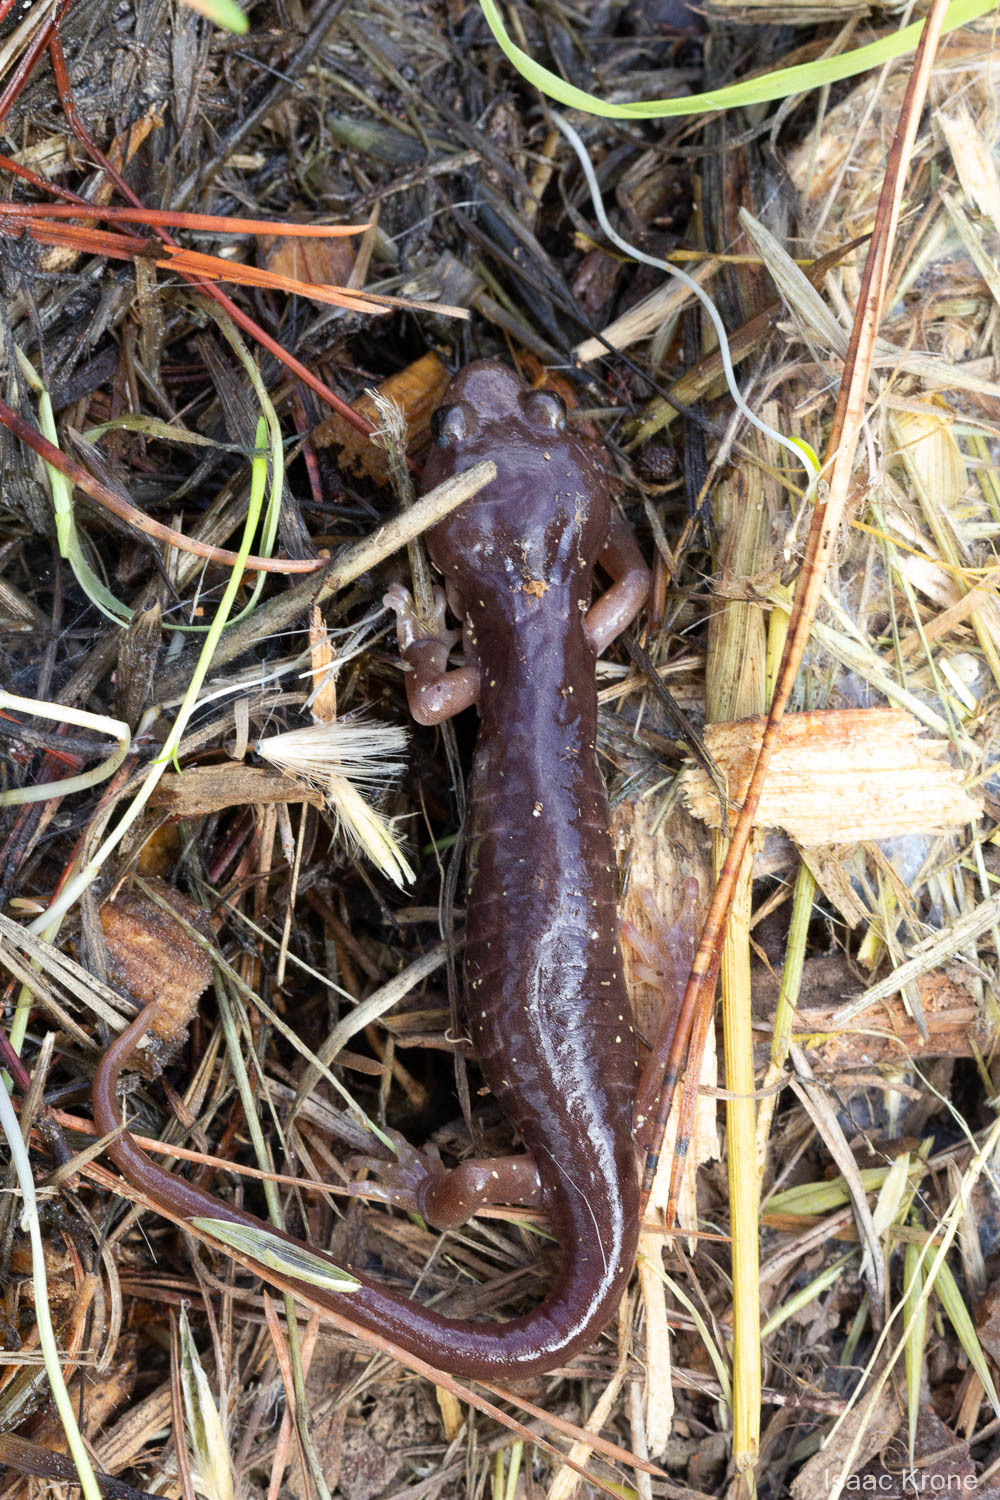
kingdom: Animalia
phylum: Chordata
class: Amphibia
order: Caudata
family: Plethodontidae
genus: Aneides
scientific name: Aneides lugubris
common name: Arboreal salamander
